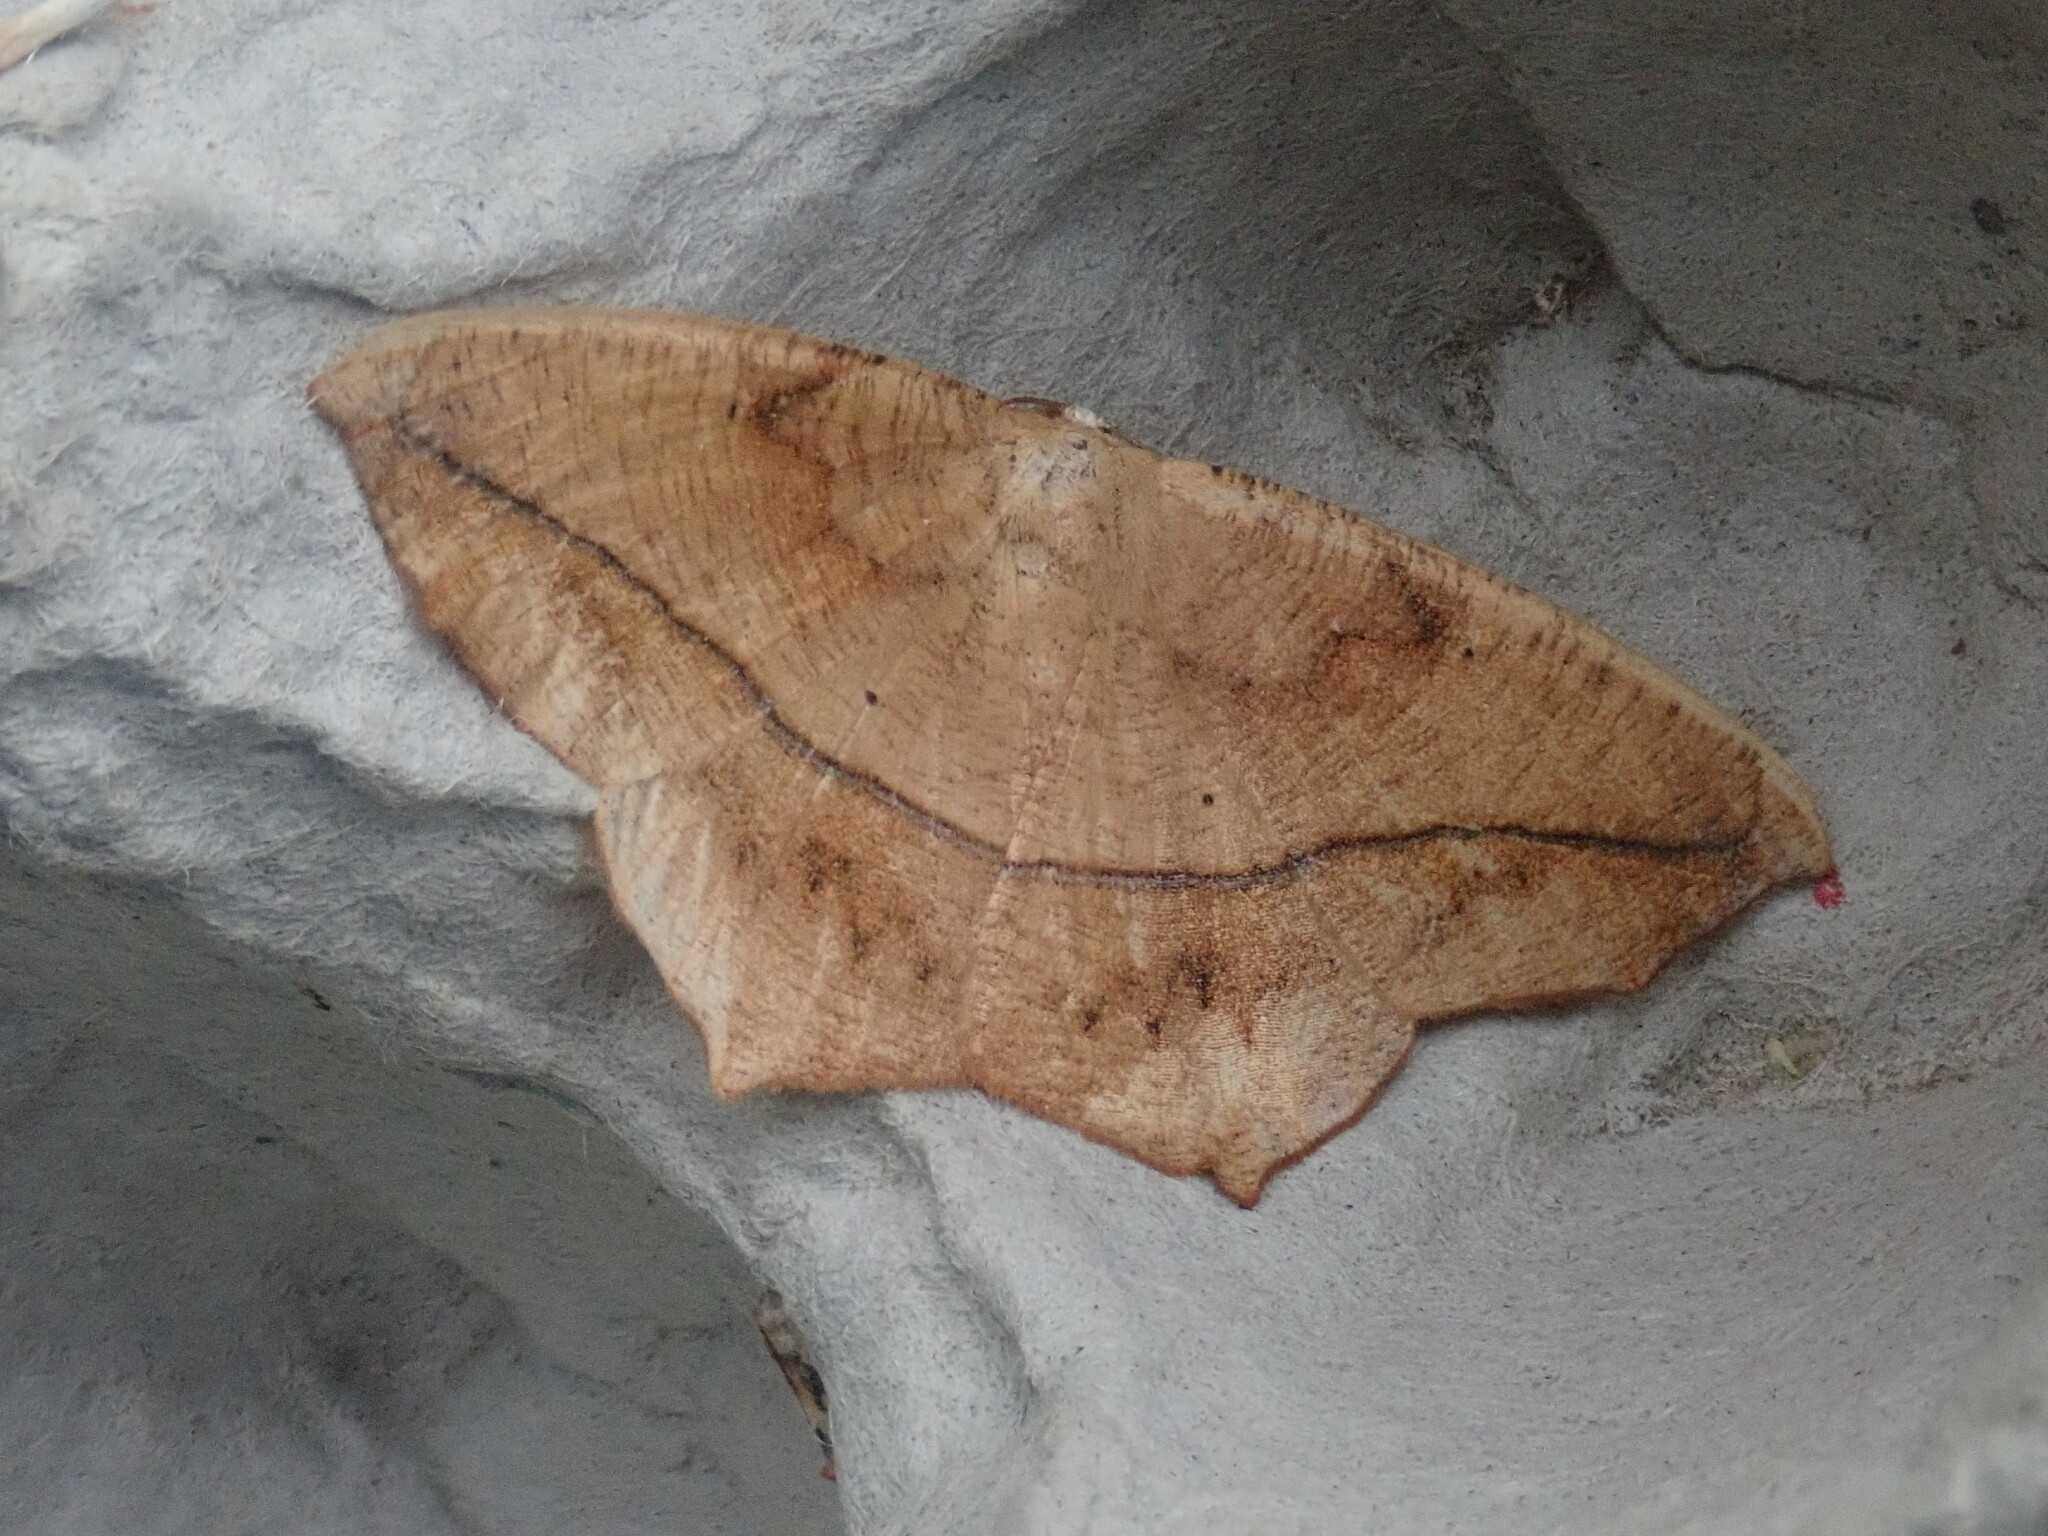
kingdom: Animalia
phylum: Arthropoda
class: Insecta
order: Lepidoptera
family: Geometridae
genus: Prochoerodes
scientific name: Prochoerodes lineola
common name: Large maple spanworm
